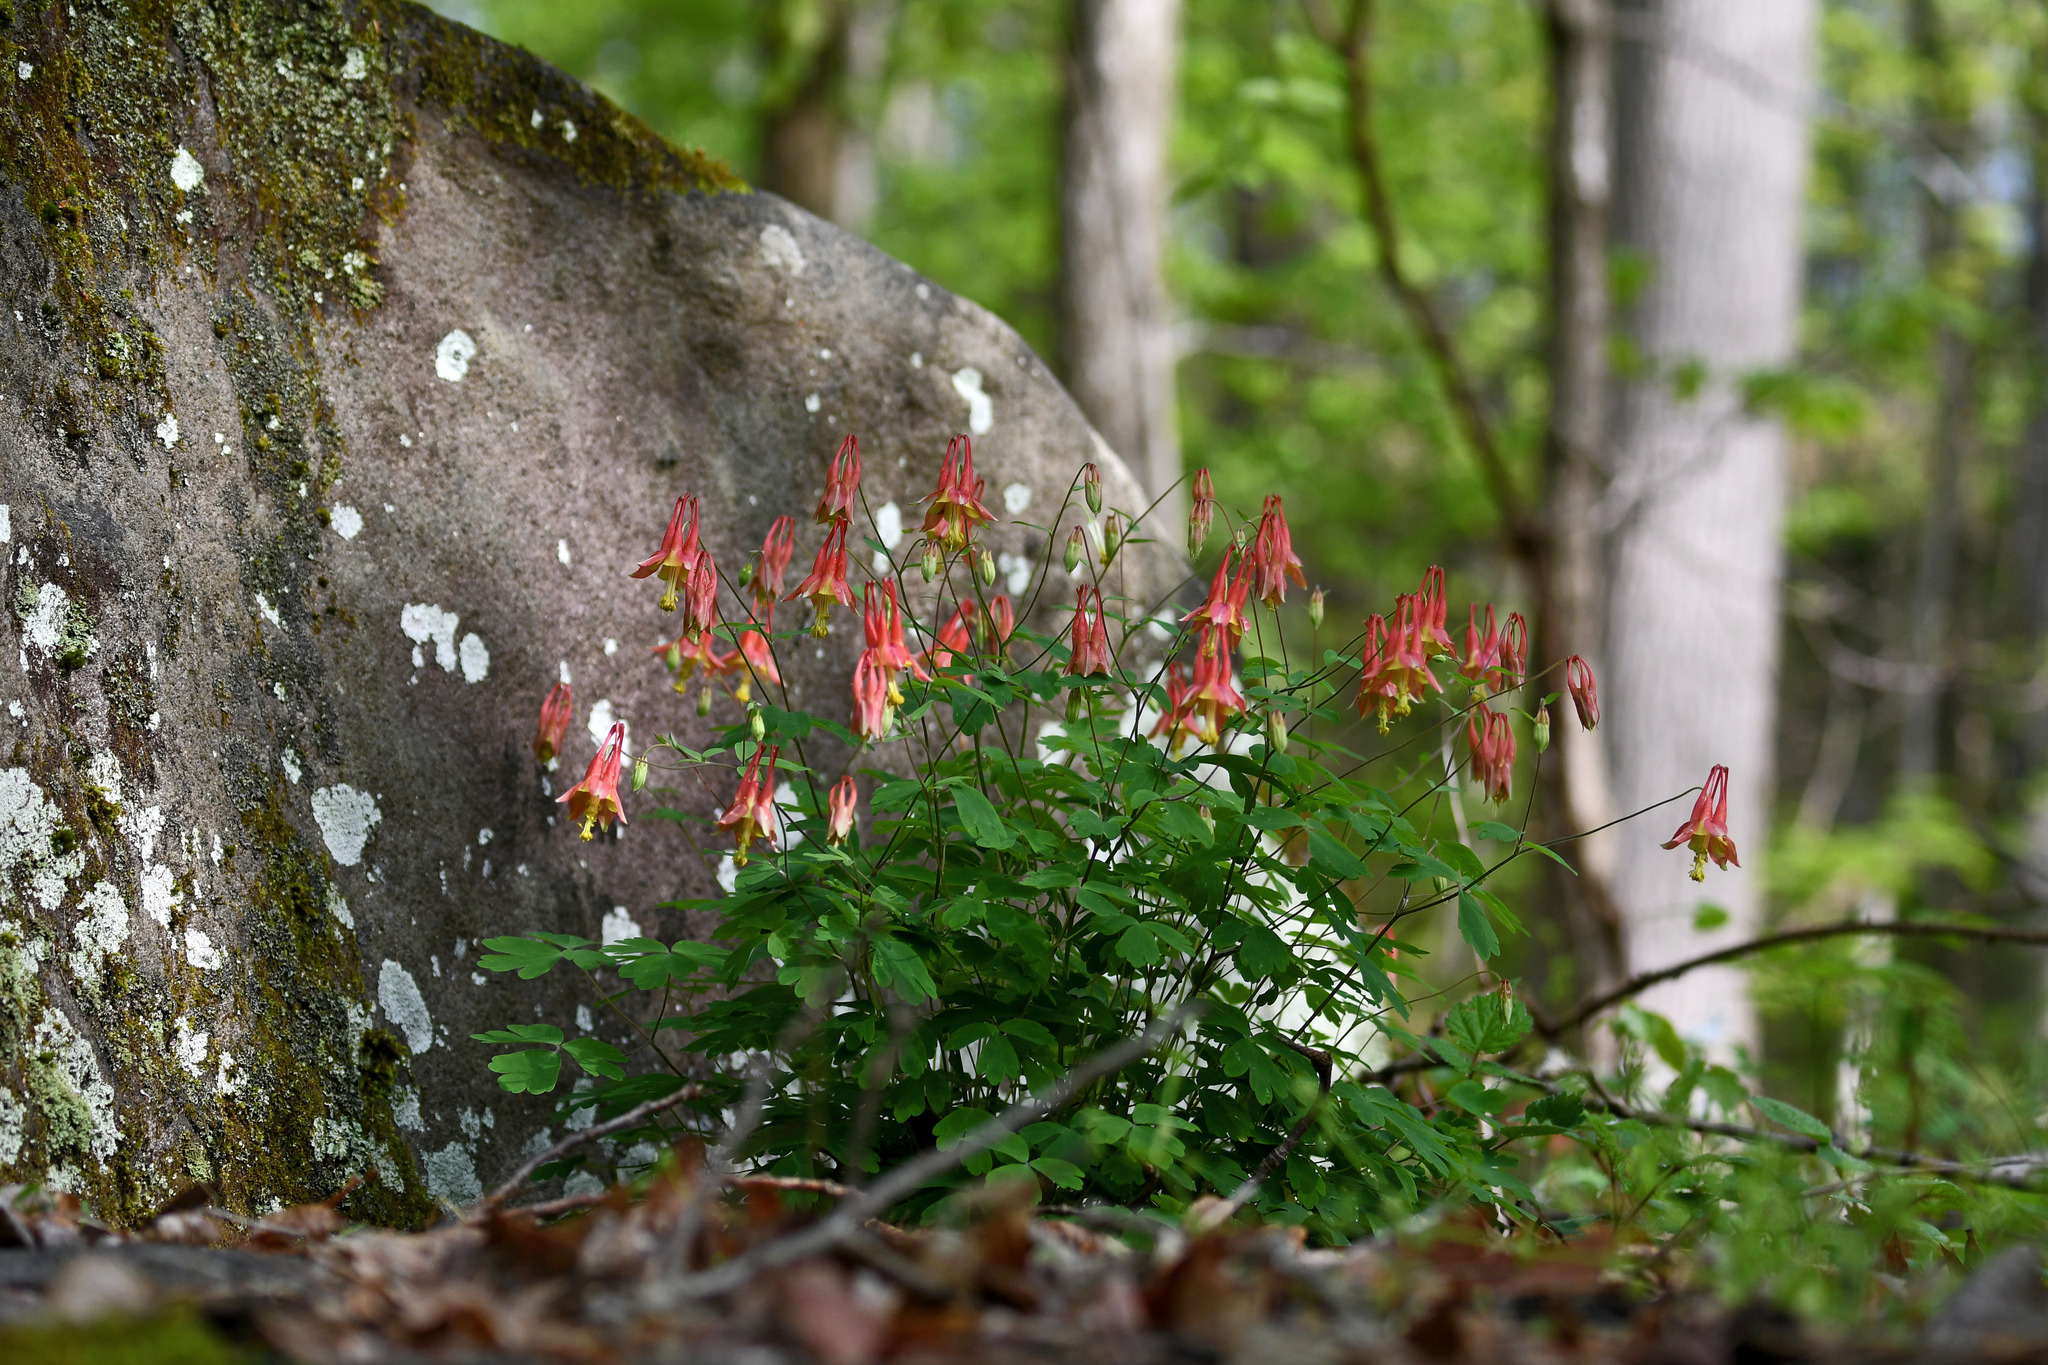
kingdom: Plantae
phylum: Tracheophyta
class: Magnoliopsida
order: Ranunculales
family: Ranunculaceae
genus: Aquilegia
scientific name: Aquilegia canadensis
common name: American columbine
